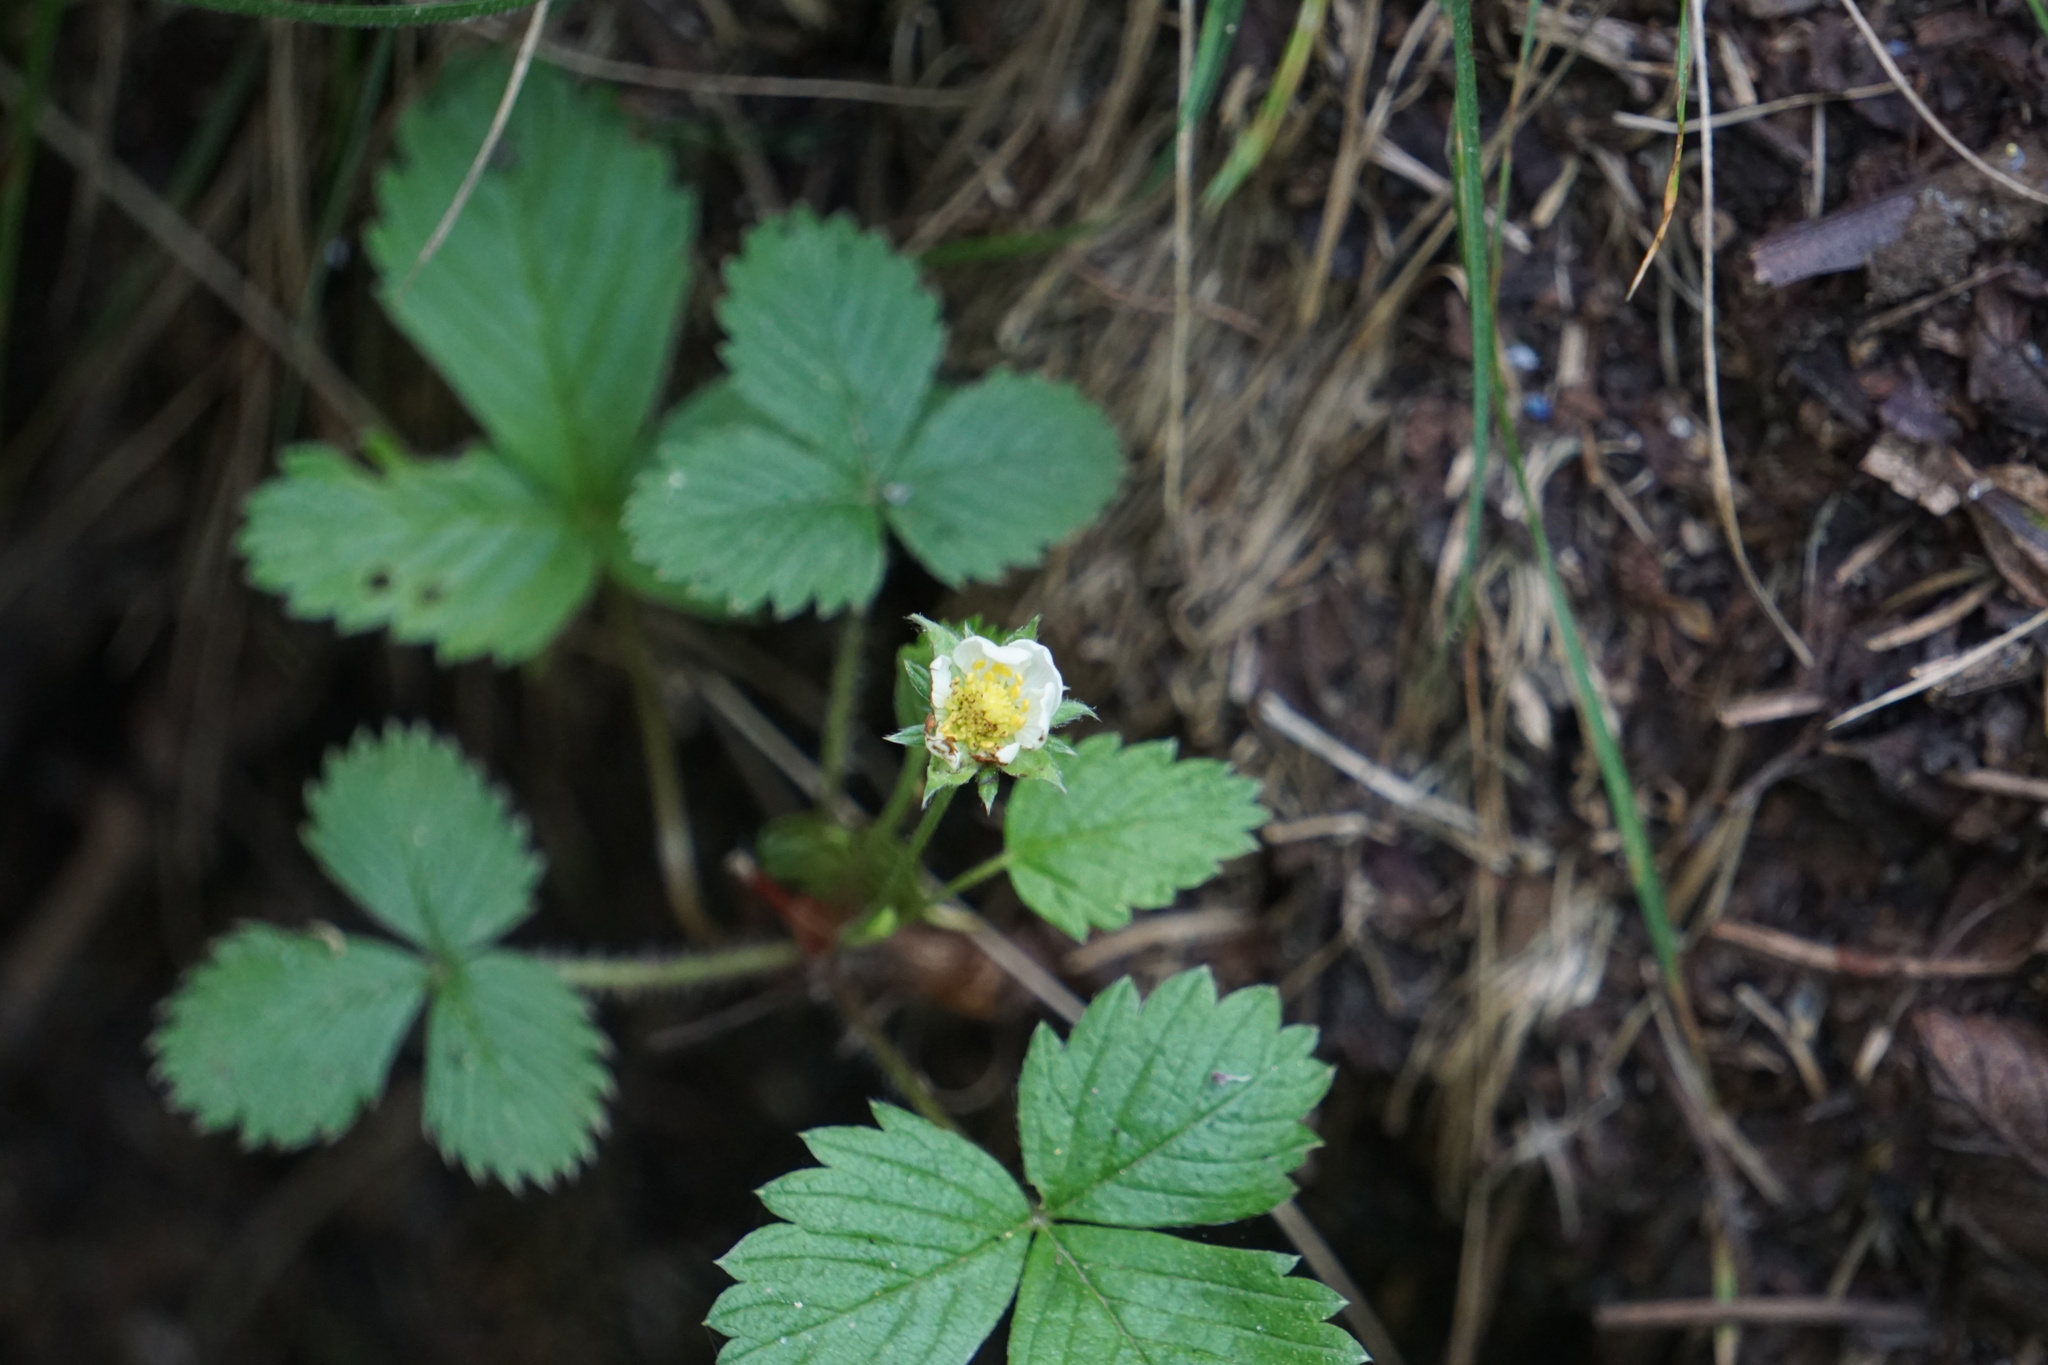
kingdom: Plantae
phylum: Tracheophyta
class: Magnoliopsida
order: Rosales
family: Rosaceae
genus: Fragaria
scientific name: Fragaria vesca
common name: Wild strawberry
